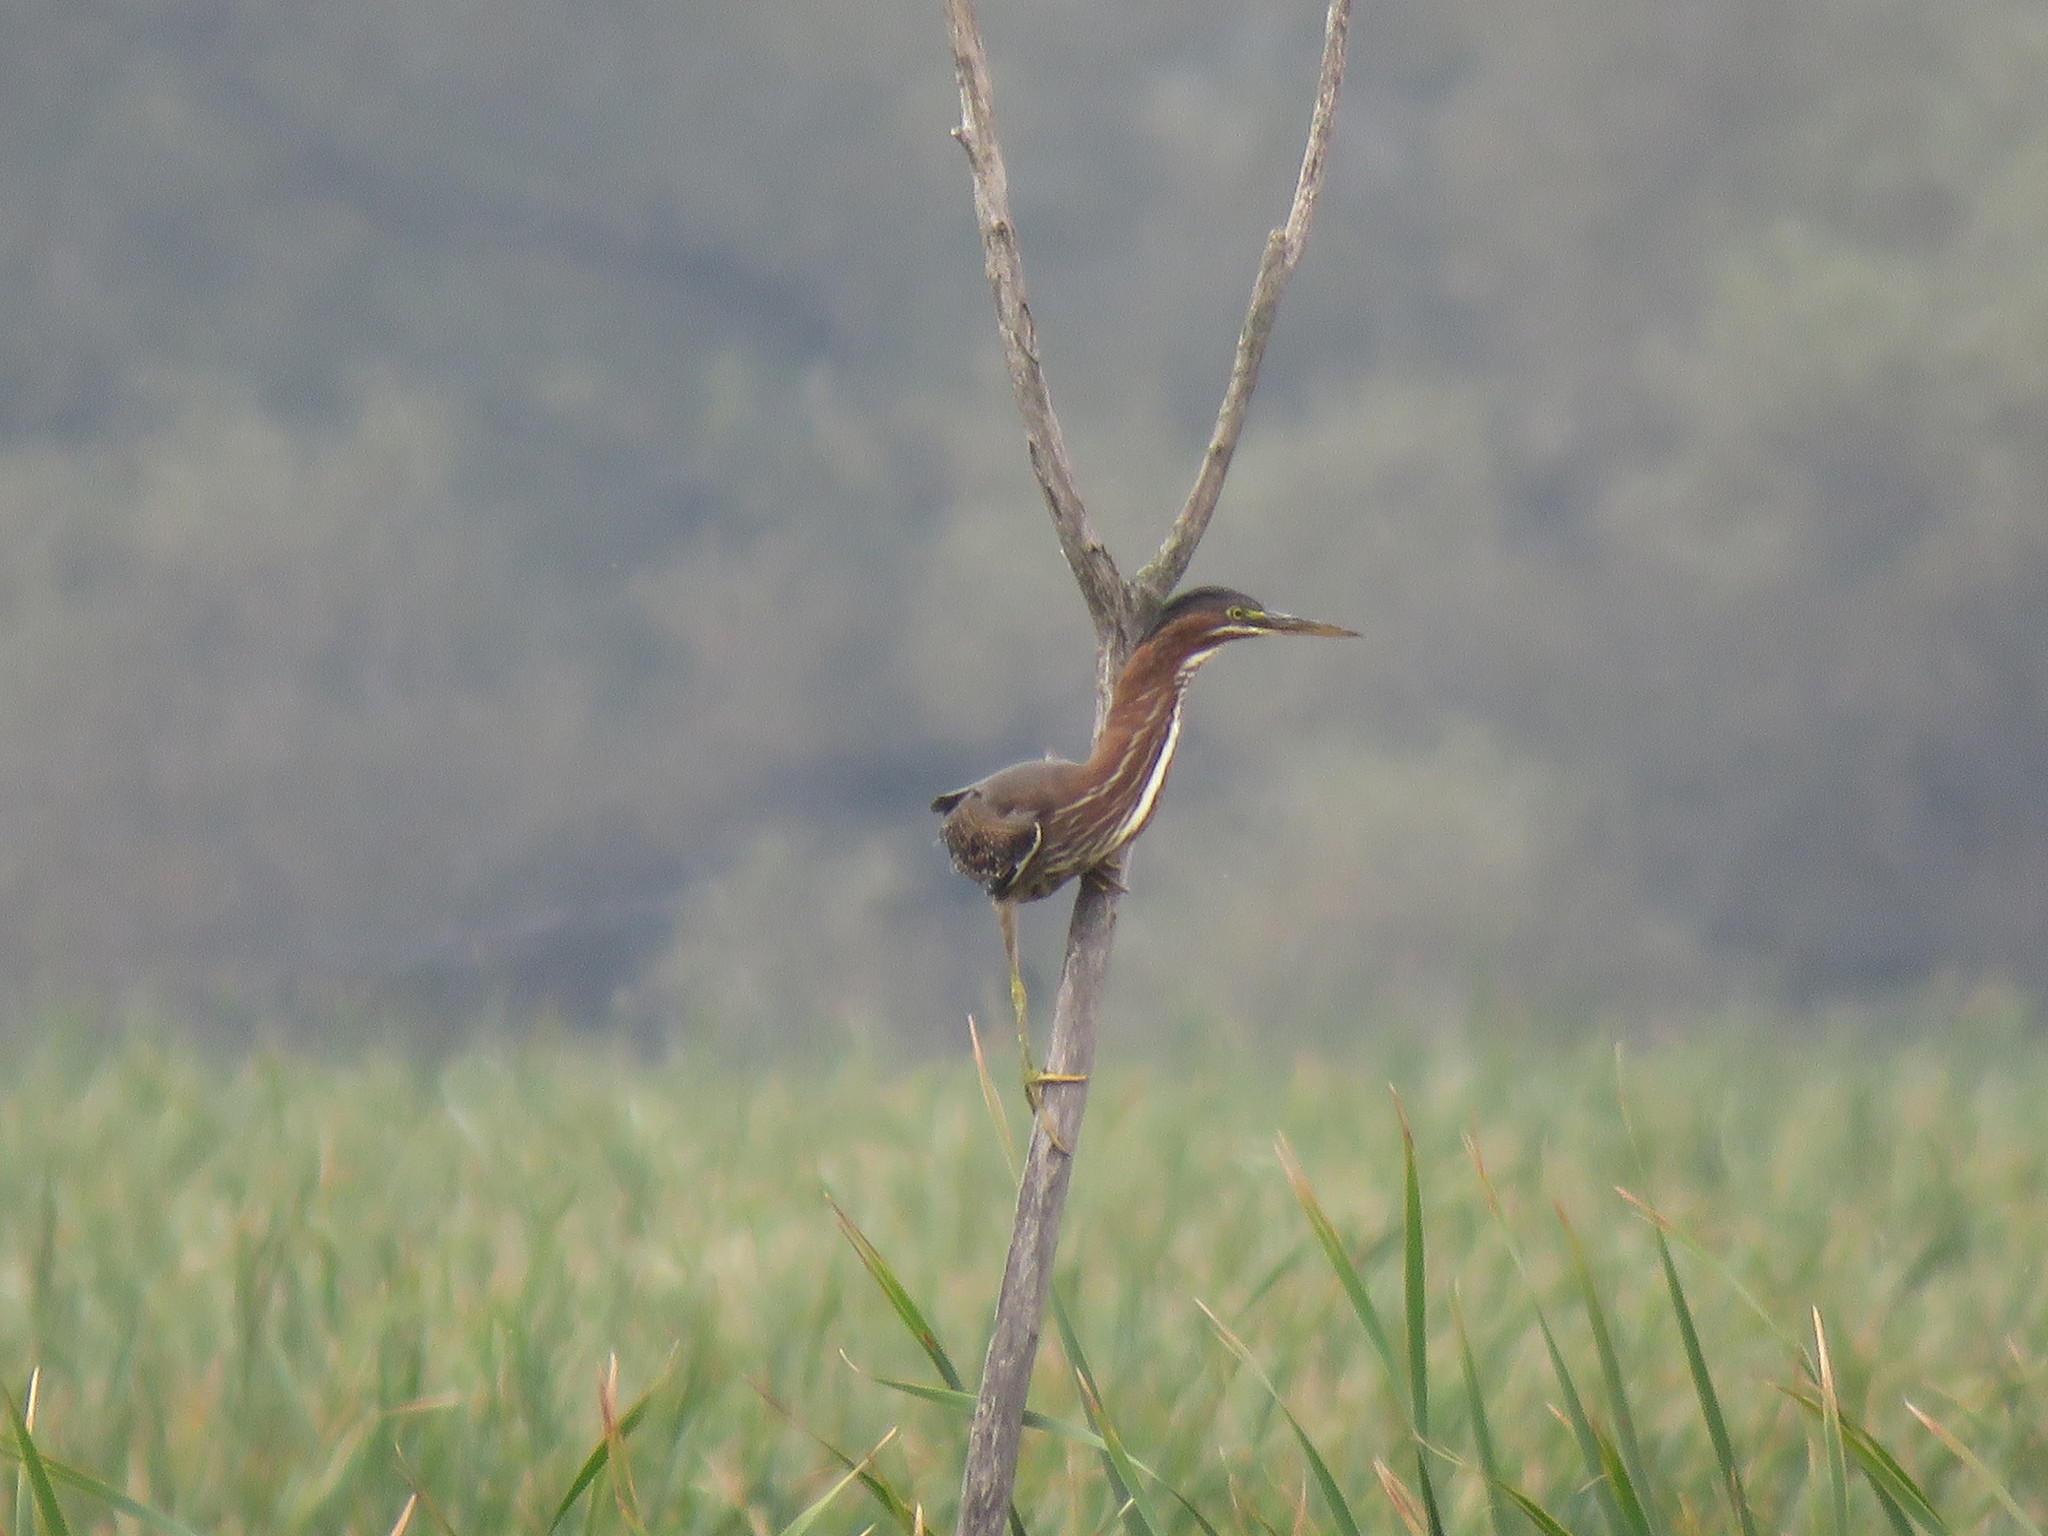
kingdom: Animalia
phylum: Chordata
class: Aves
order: Pelecaniformes
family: Ardeidae
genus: Butorides
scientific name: Butorides virescens
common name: Green heron
